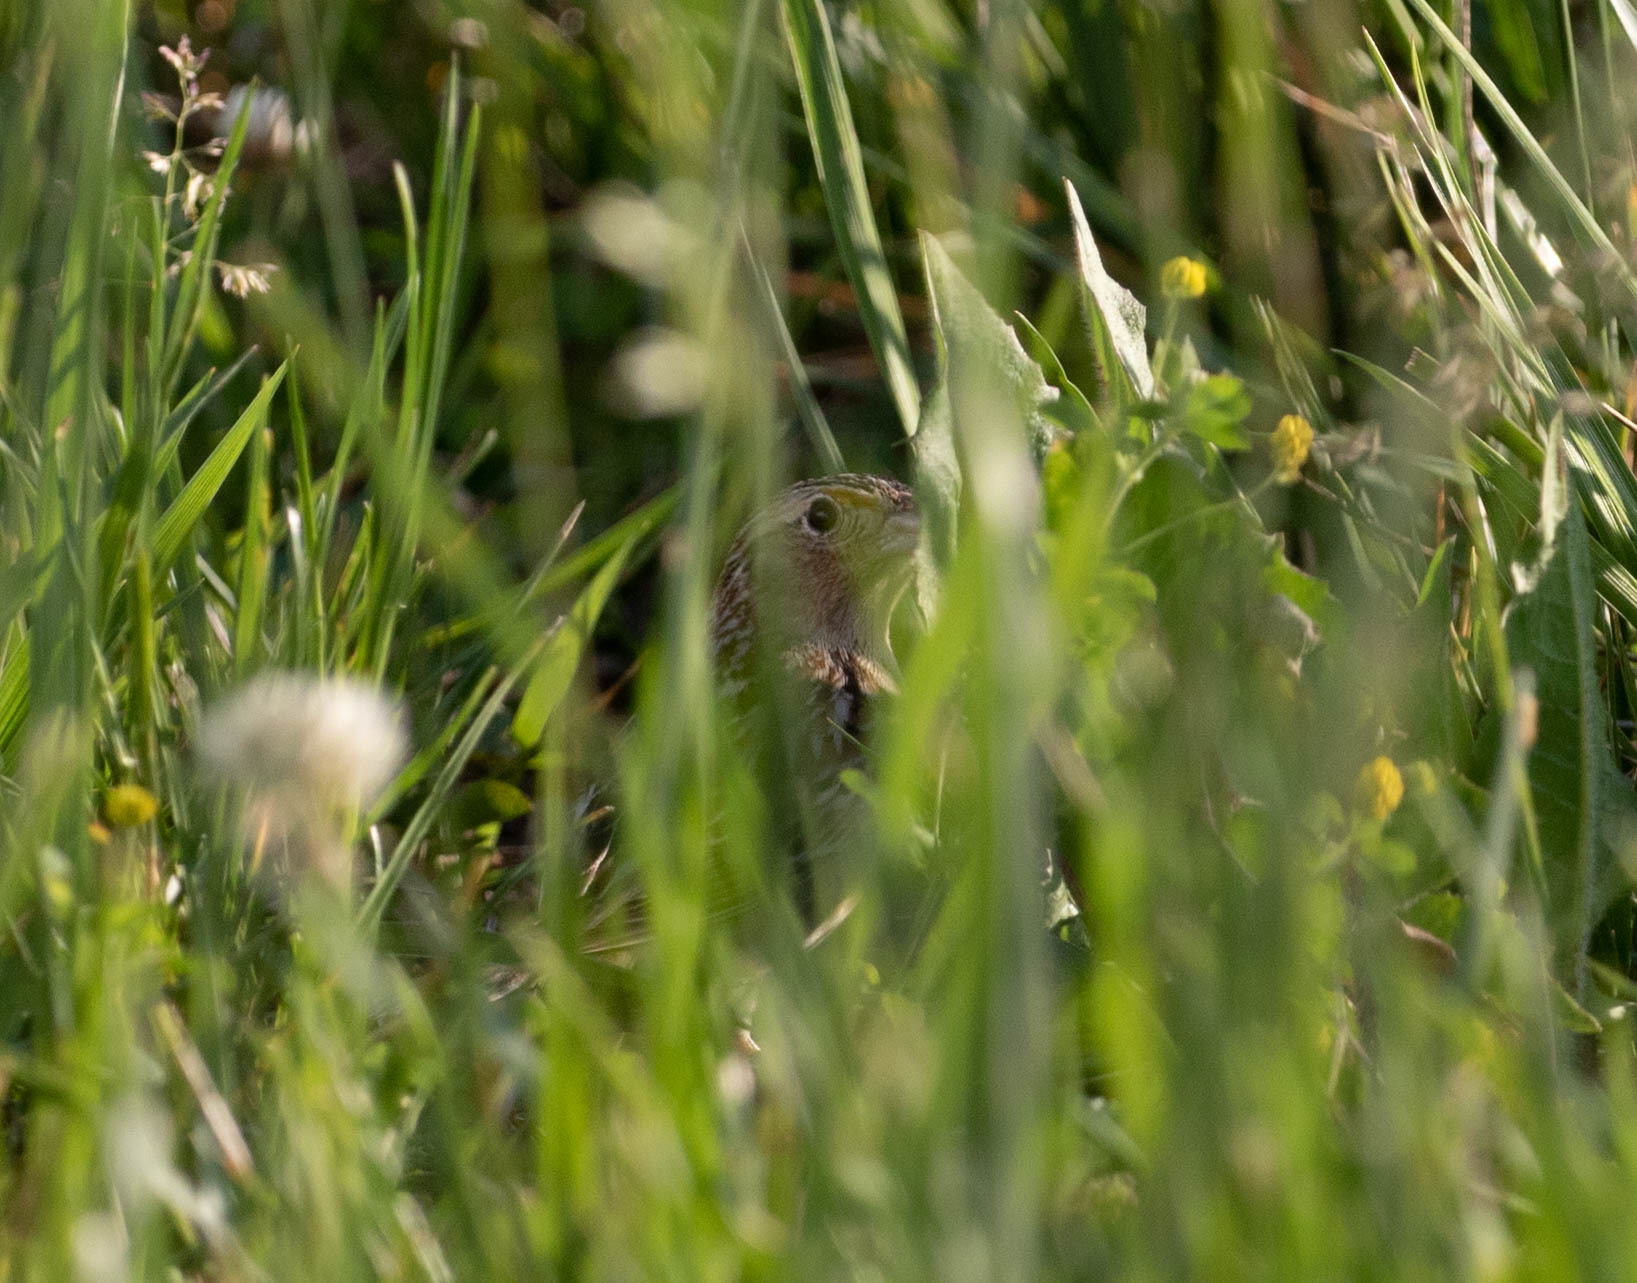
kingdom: Animalia
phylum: Chordata
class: Aves
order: Passeriformes
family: Passerellidae
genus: Ammodramus
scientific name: Ammodramus savannarum
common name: Grasshopper sparrow
